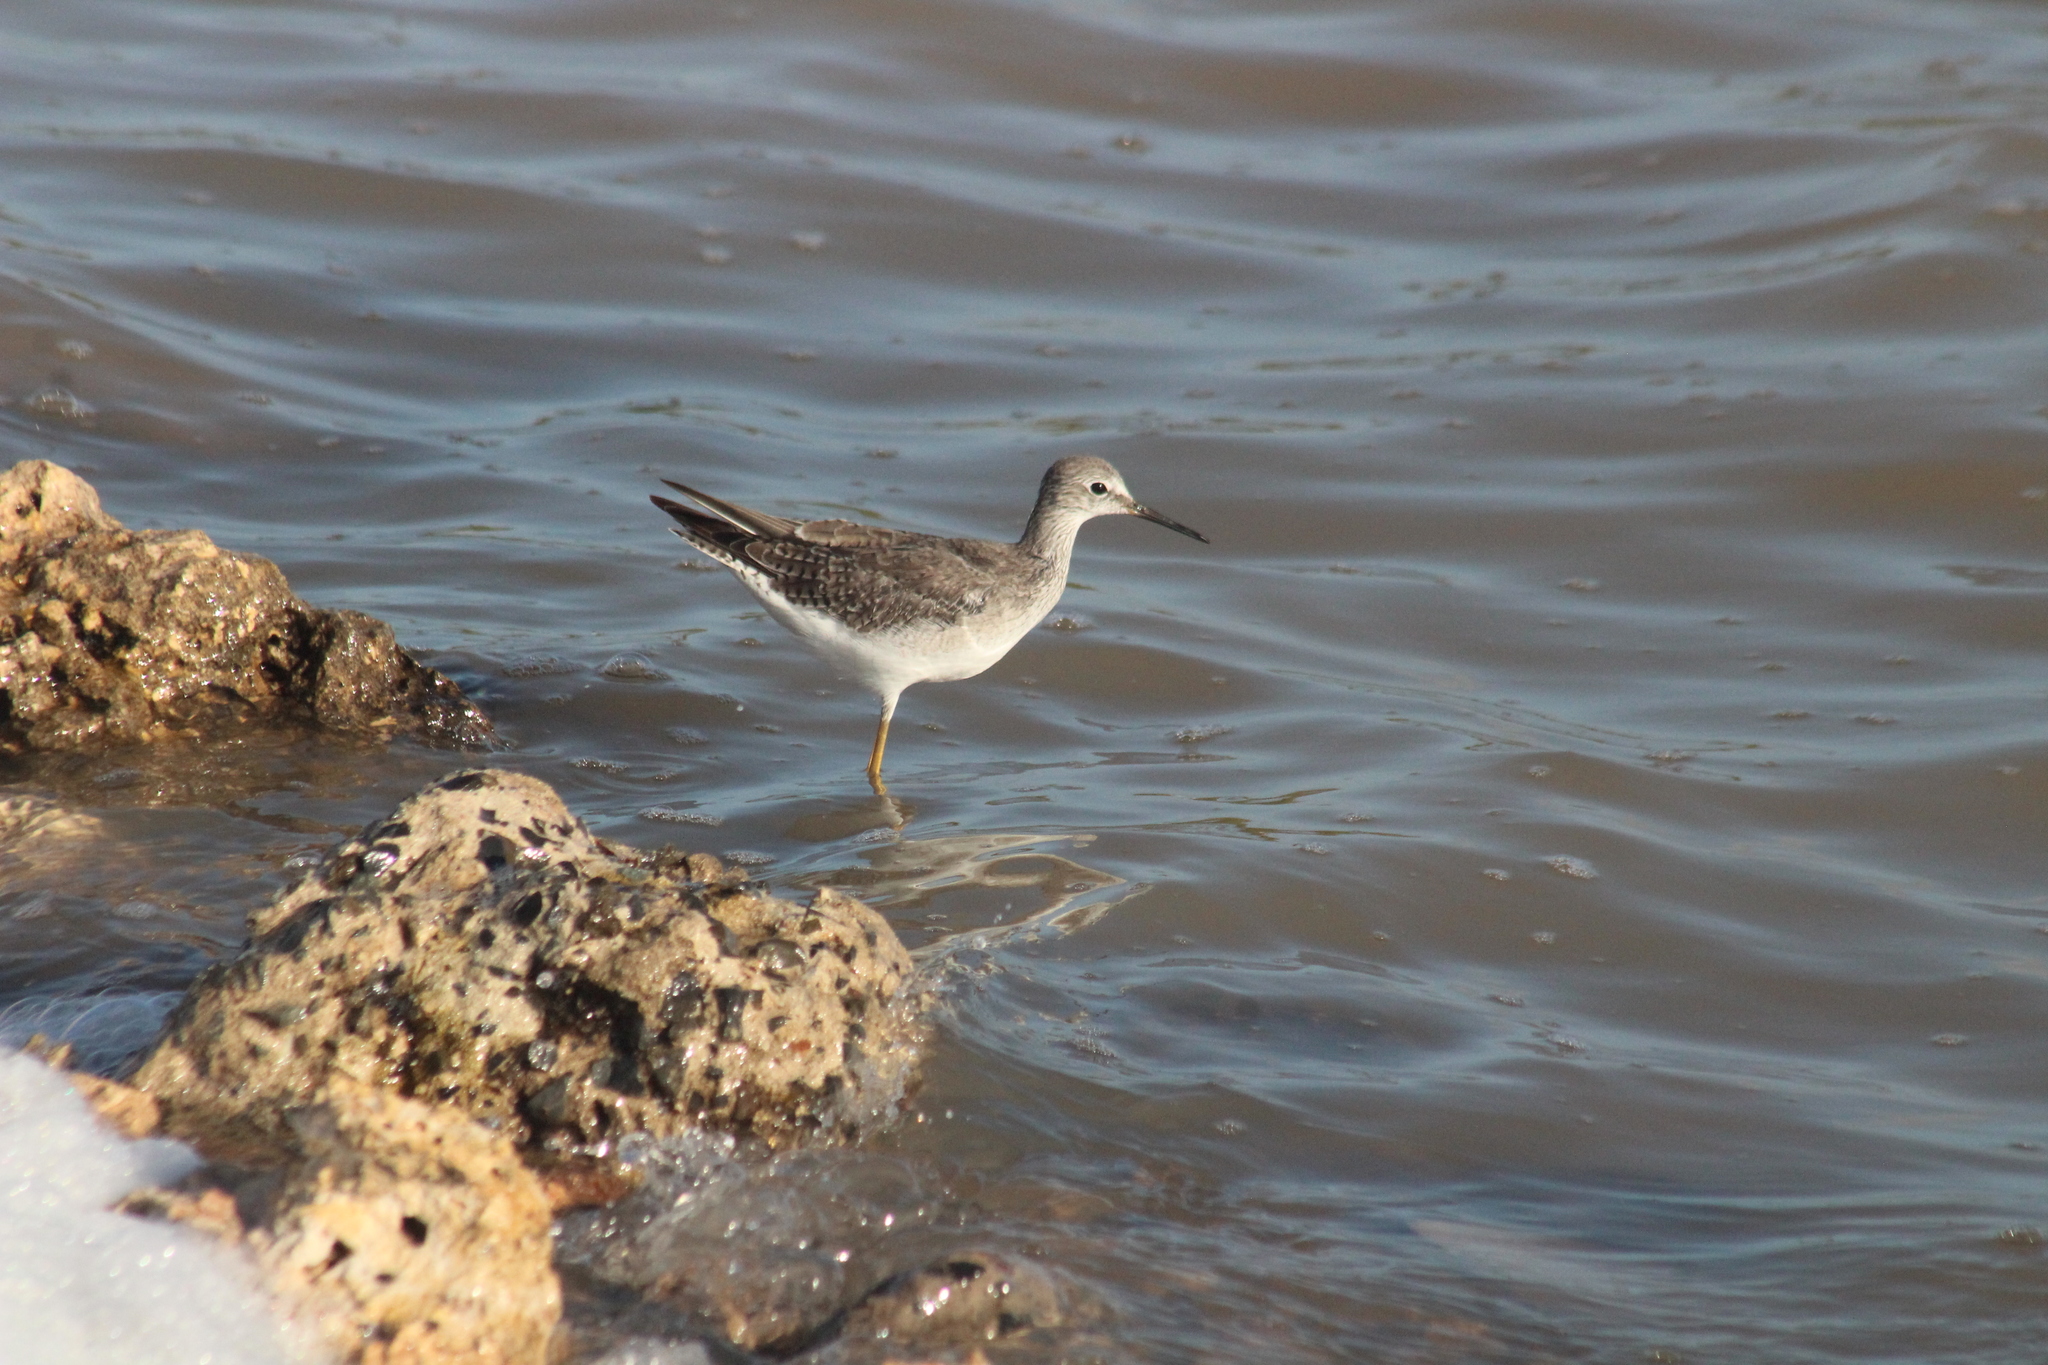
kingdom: Animalia
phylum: Chordata
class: Aves
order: Charadriiformes
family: Scolopacidae
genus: Tringa
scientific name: Tringa flavipes
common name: Lesser yellowlegs
